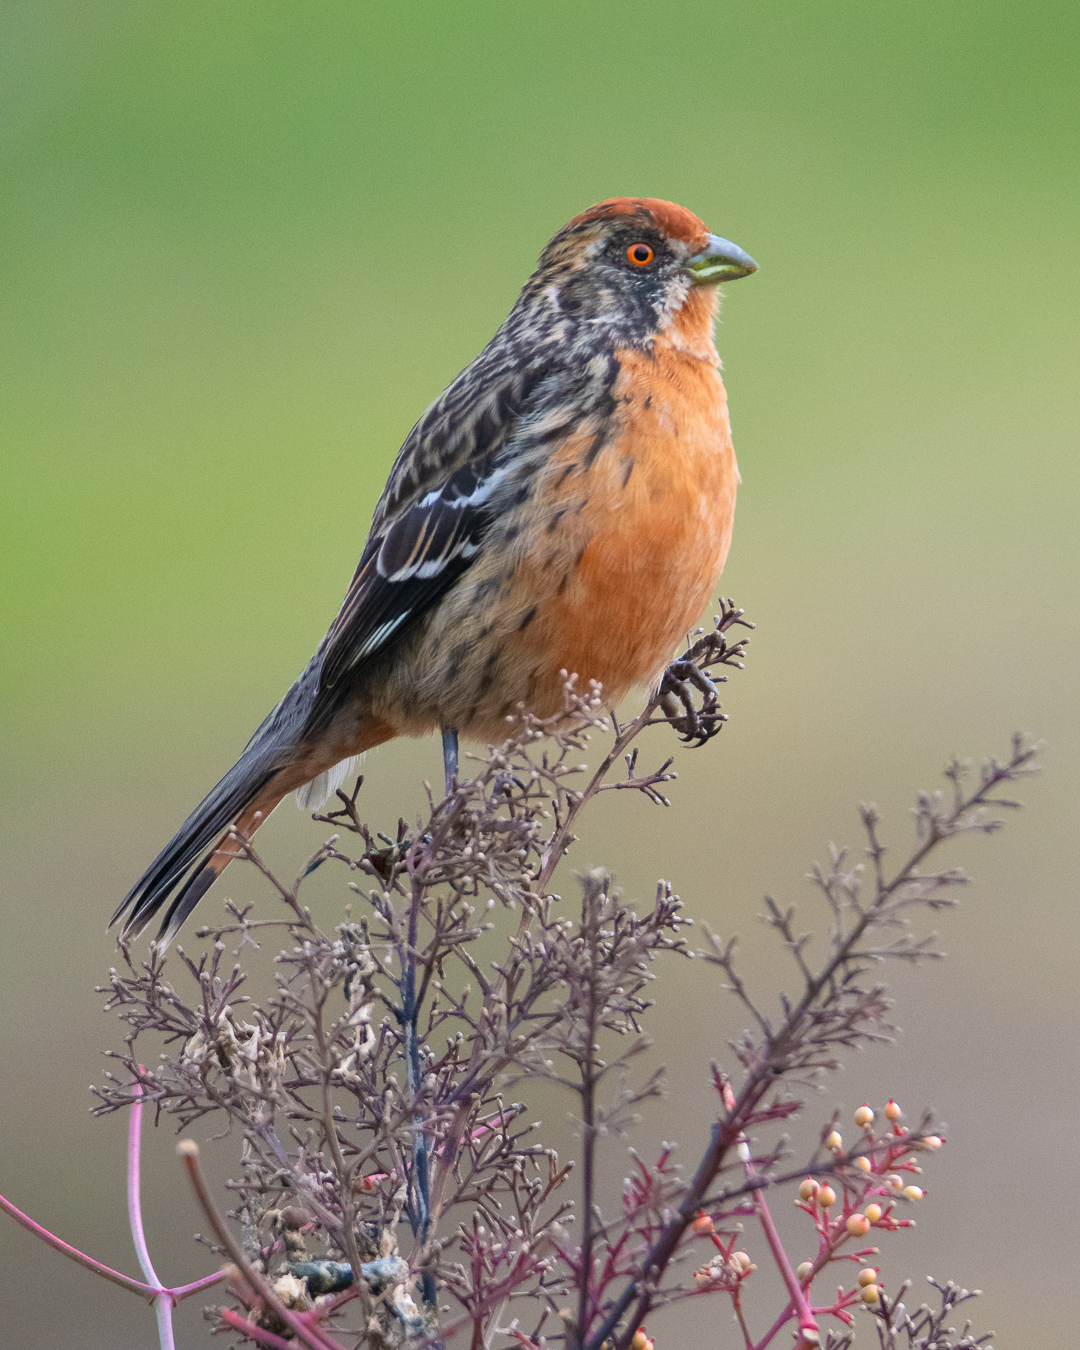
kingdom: Animalia
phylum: Chordata
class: Aves
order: Passeriformes
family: Cotingidae
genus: Phytotoma
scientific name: Phytotoma rara
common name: Rufous-tailed plantcutter
